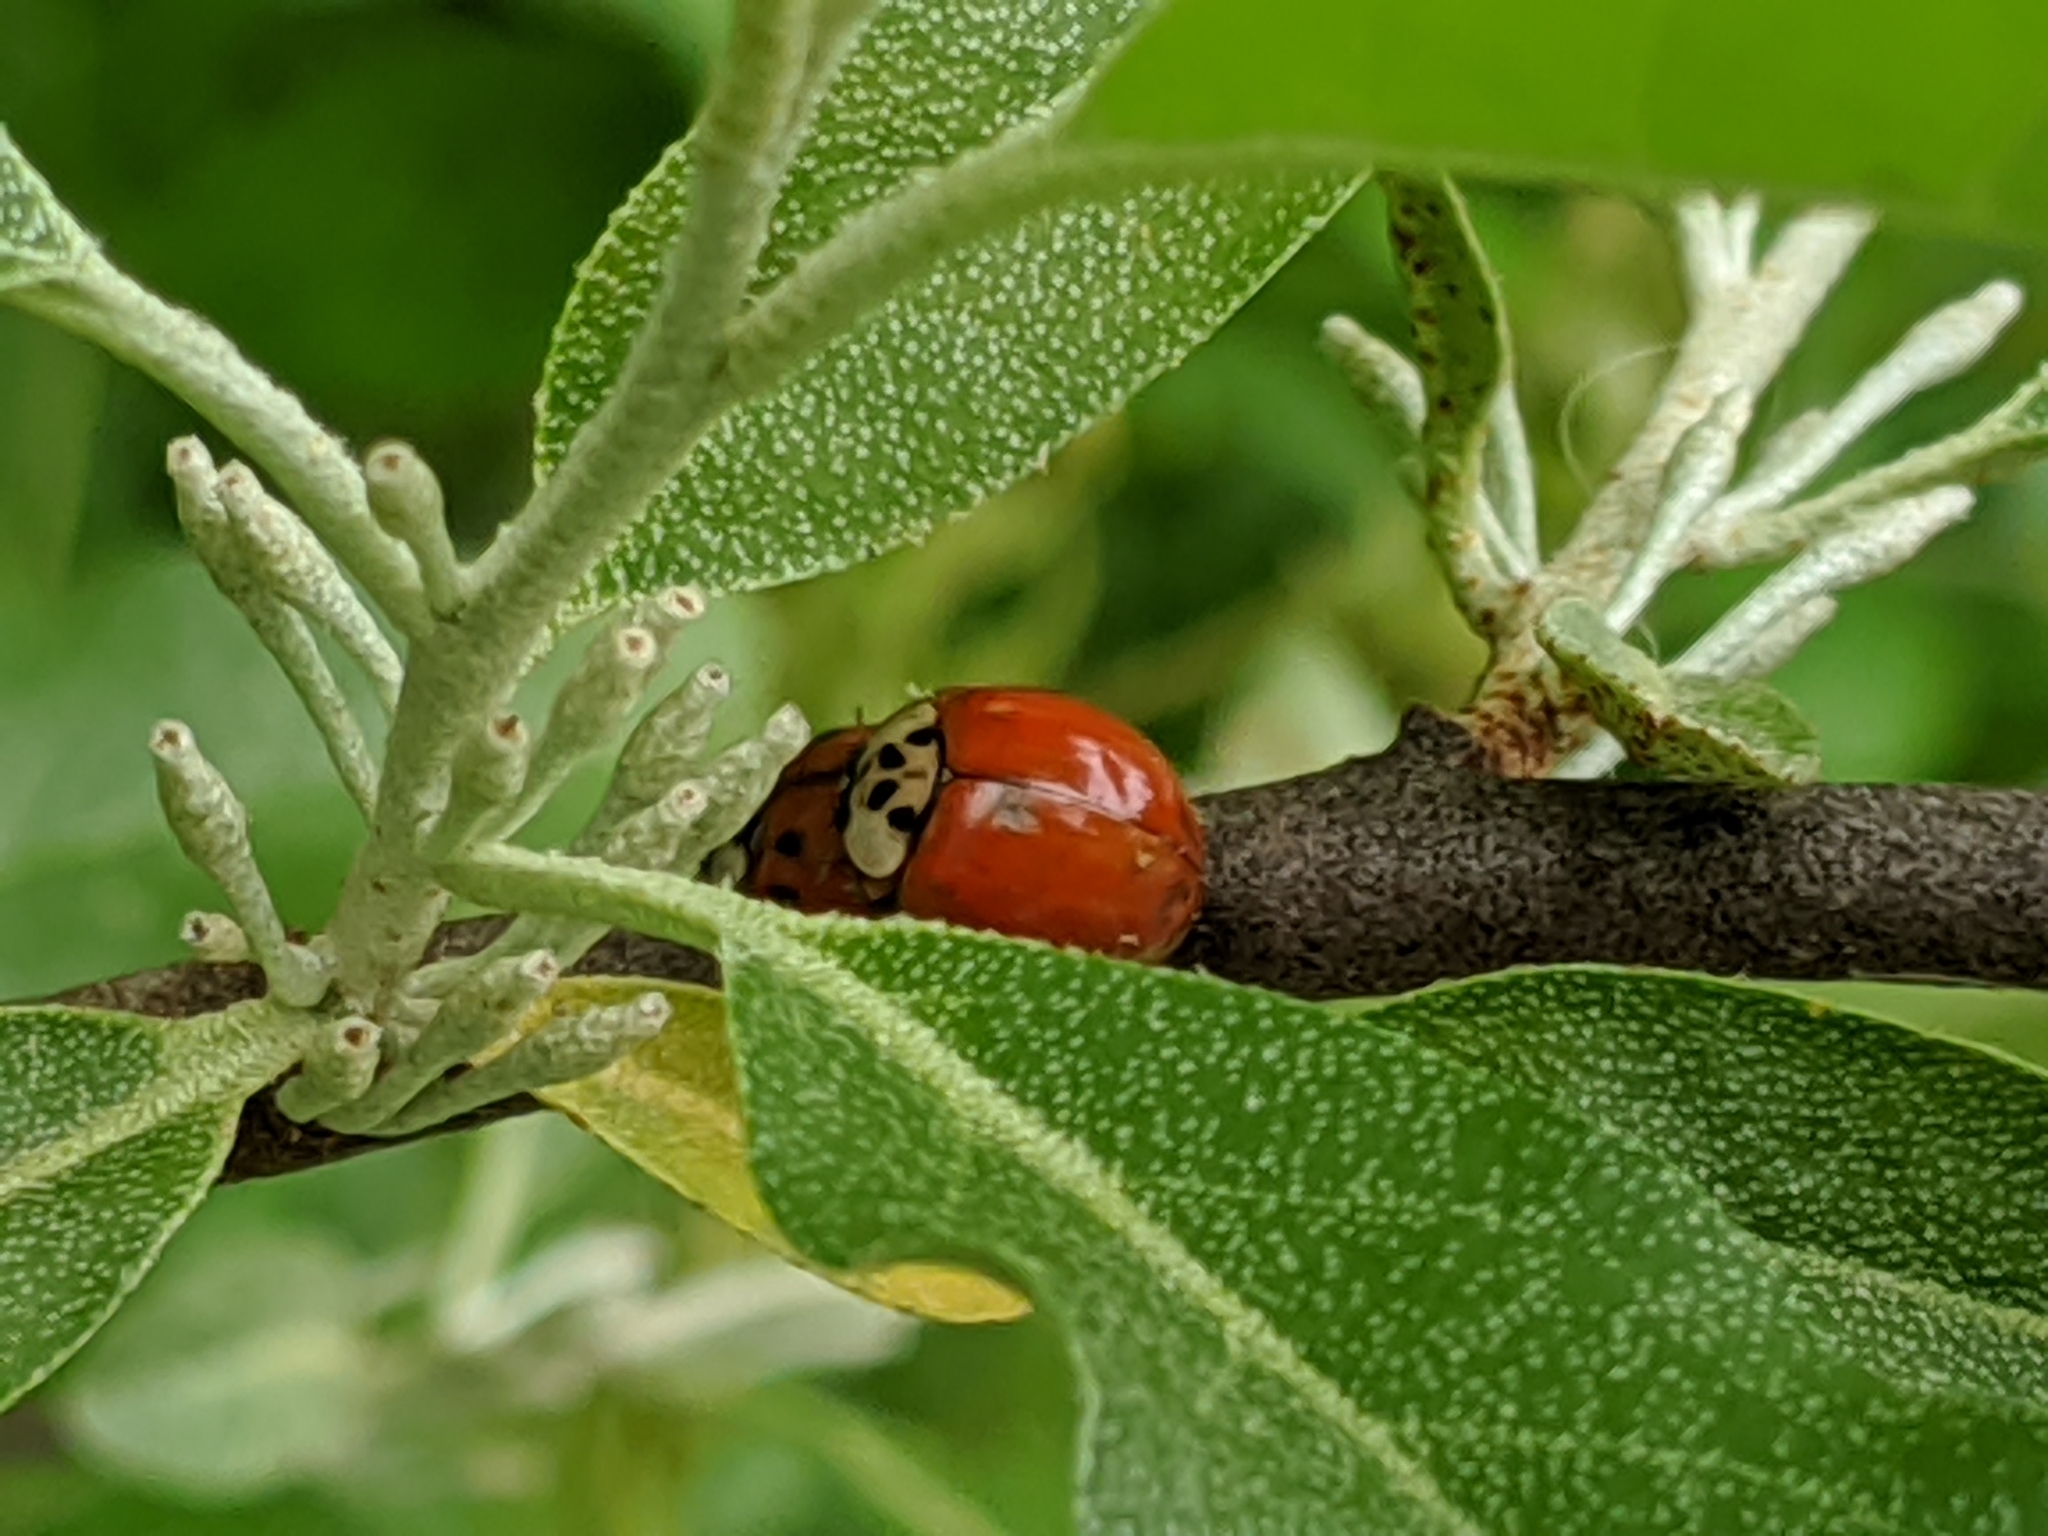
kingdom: Animalia
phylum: Arthropoda
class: Insecta
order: Coleoptera
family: Coccinellidae
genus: Harmonia
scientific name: Harmonia axyridis
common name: Harlequin ladybird
